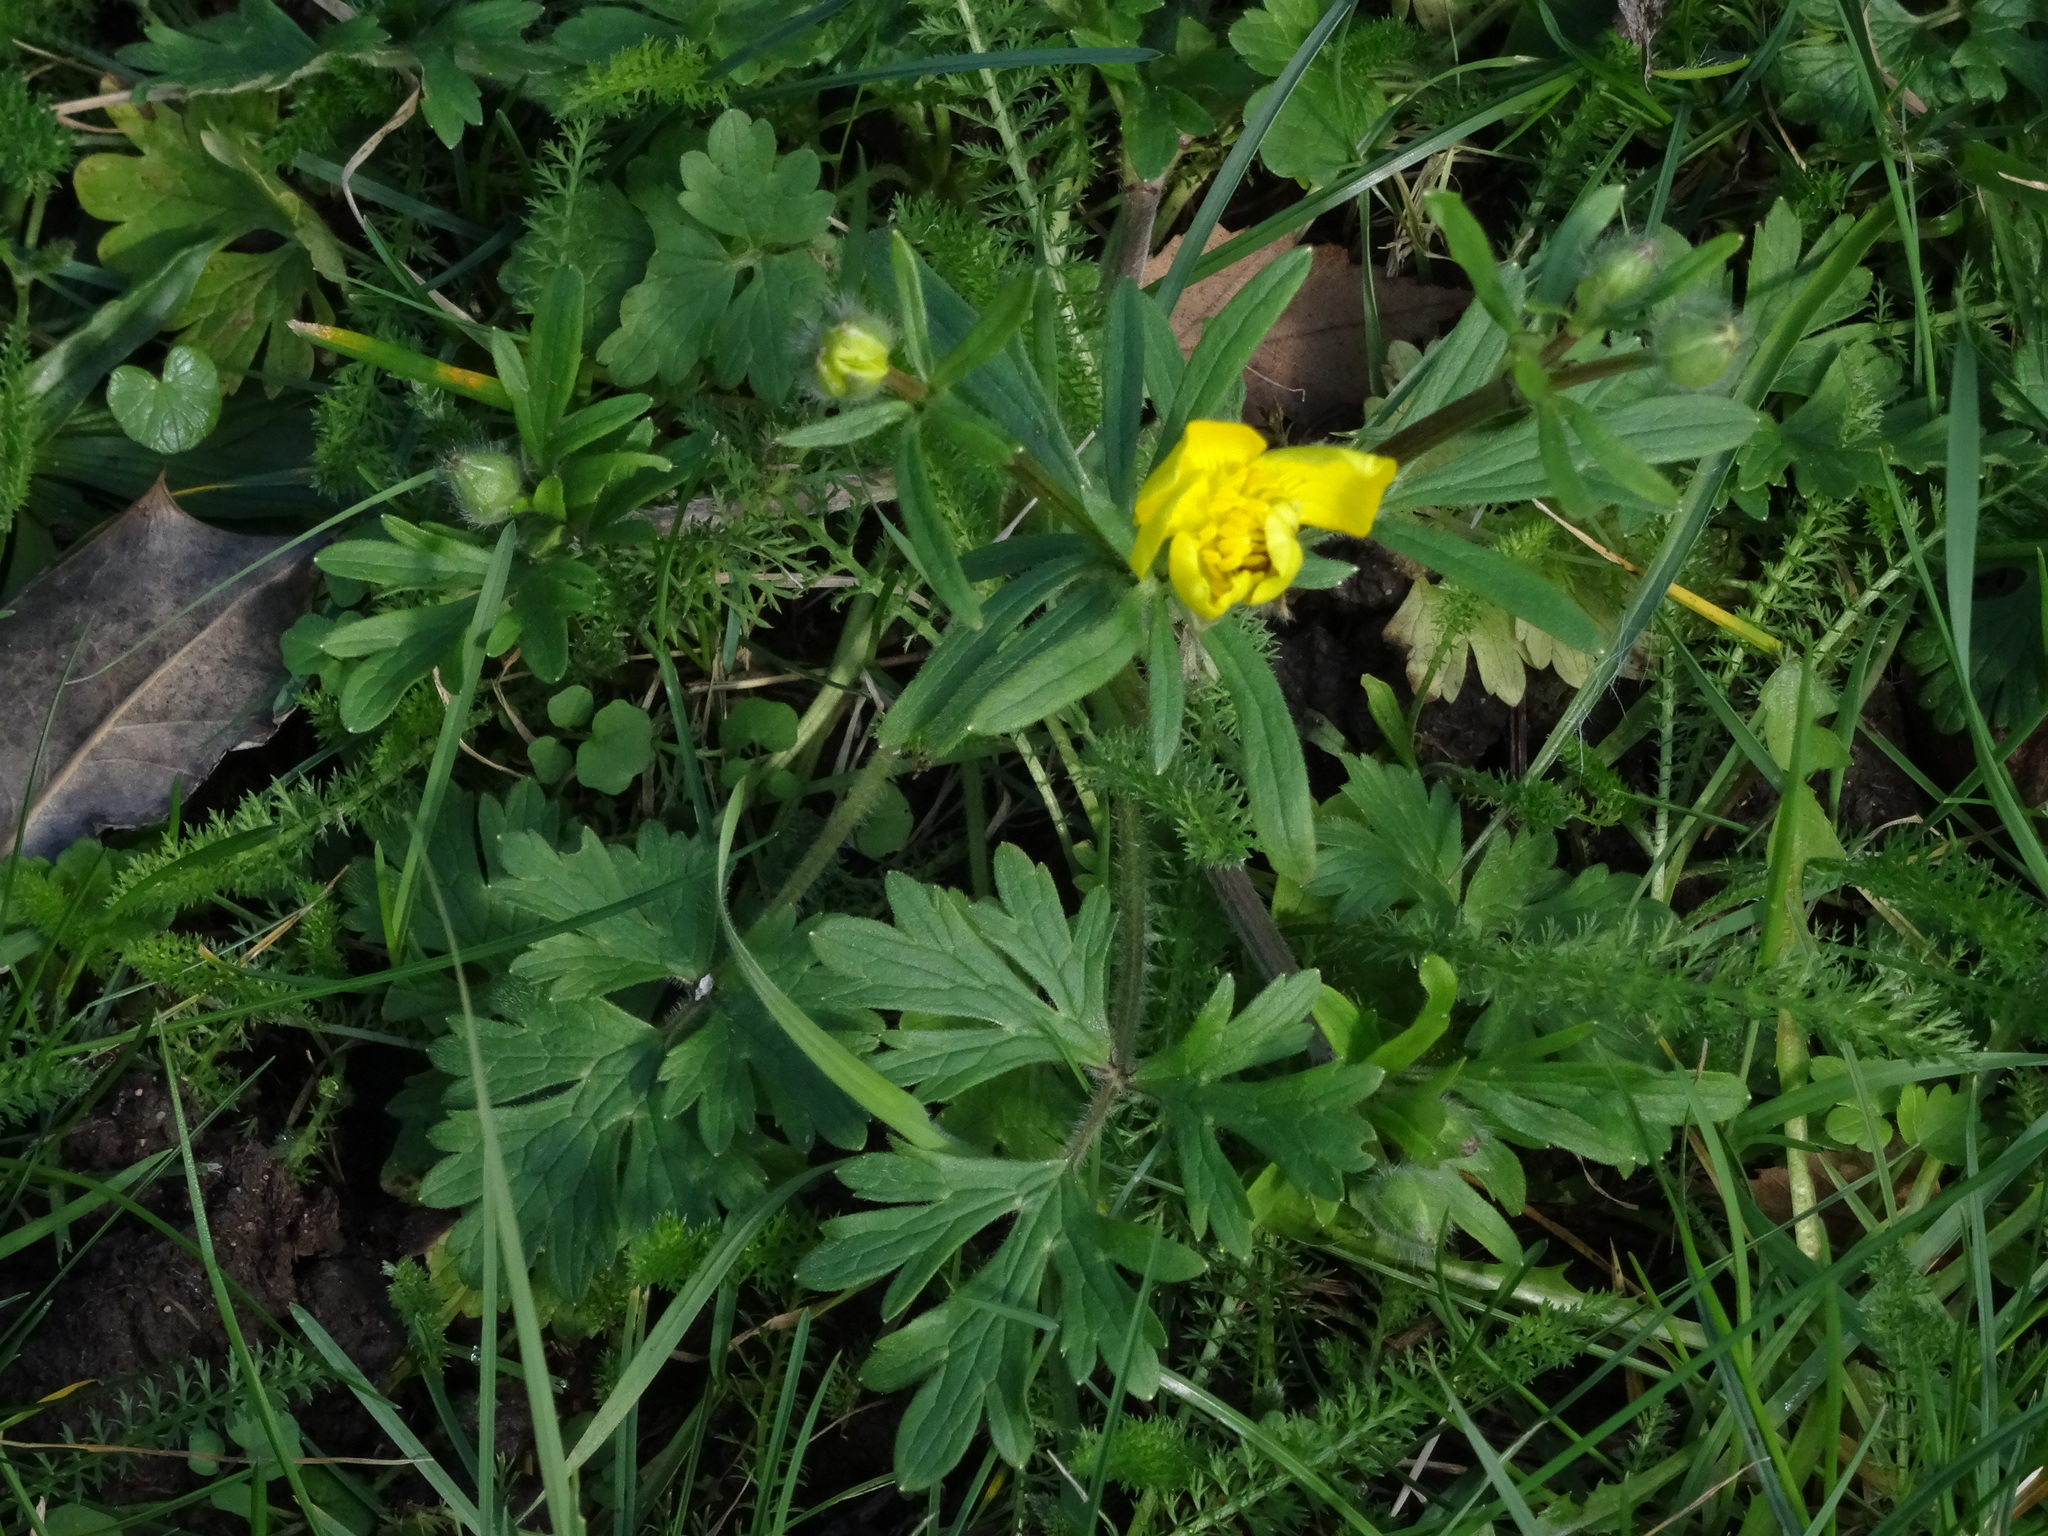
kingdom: Plantae
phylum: Tracheophyta
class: Magnoliopsida
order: Ranunculales
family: Ranunculaceae
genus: Ranunculus
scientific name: Ranunculus bulbosus
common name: Bulbous buttercup
